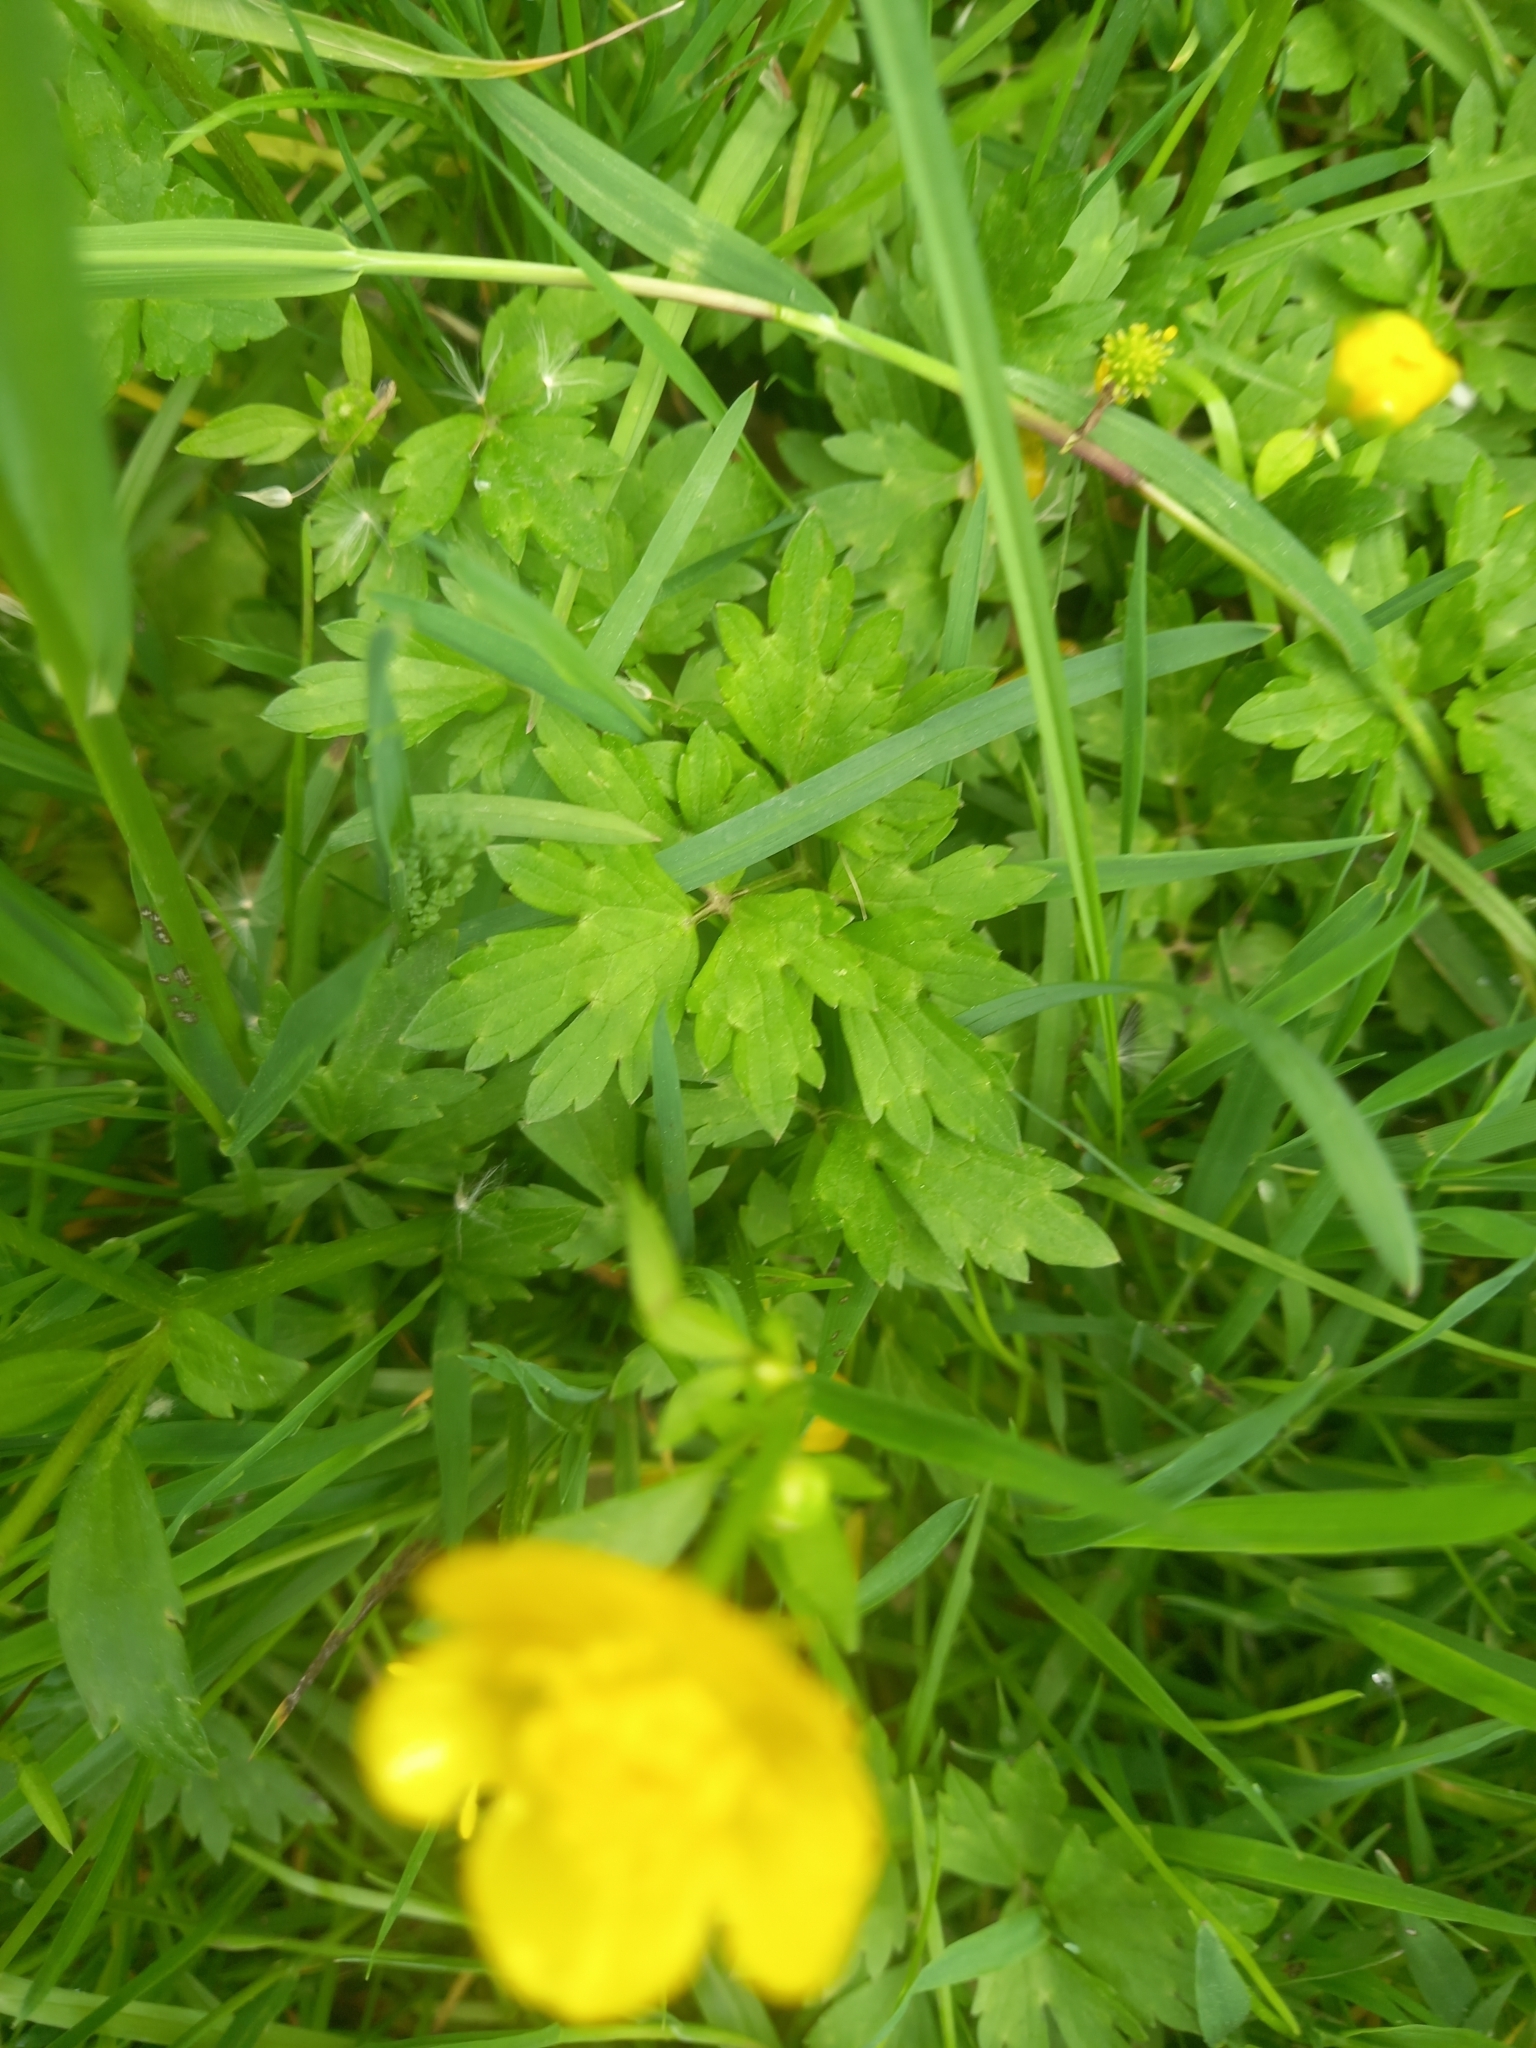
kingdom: Plantae
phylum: Tracheophyta
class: Magnoliopsida
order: Ranunculales
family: Ranunculaceae
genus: Ranunculus
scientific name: Ranunculus repens
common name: Creeping buttercup
